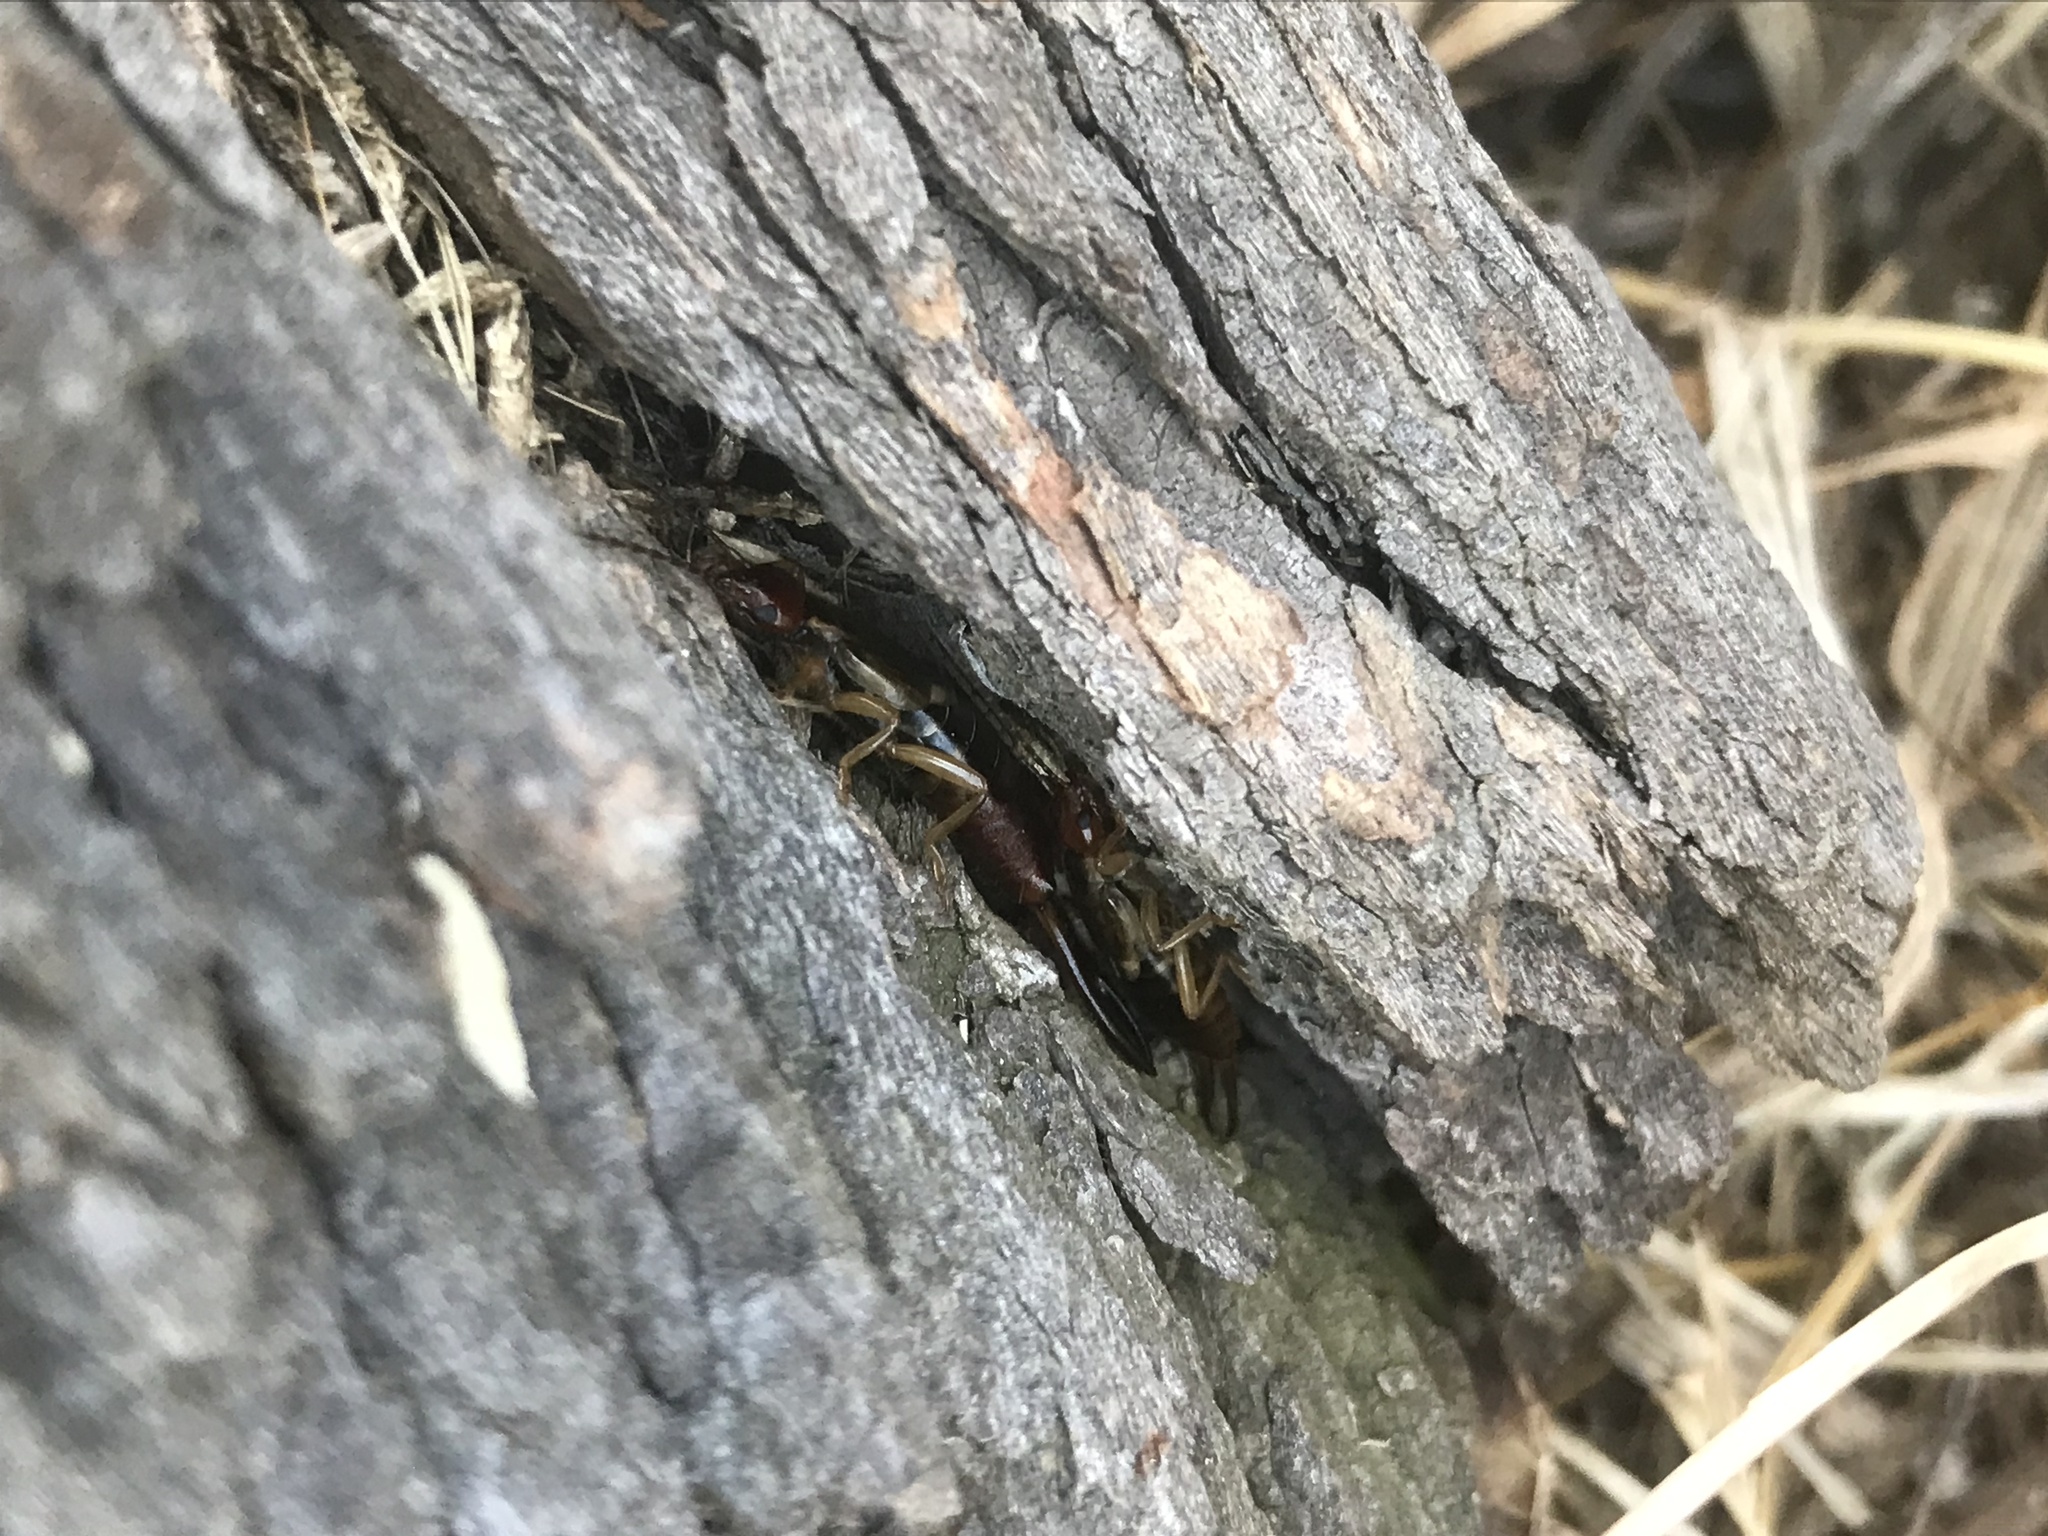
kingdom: Animalia
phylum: Arthropoda
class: Insecta
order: Dermaptera
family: Forficulidae
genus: Forficula
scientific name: Forficula
